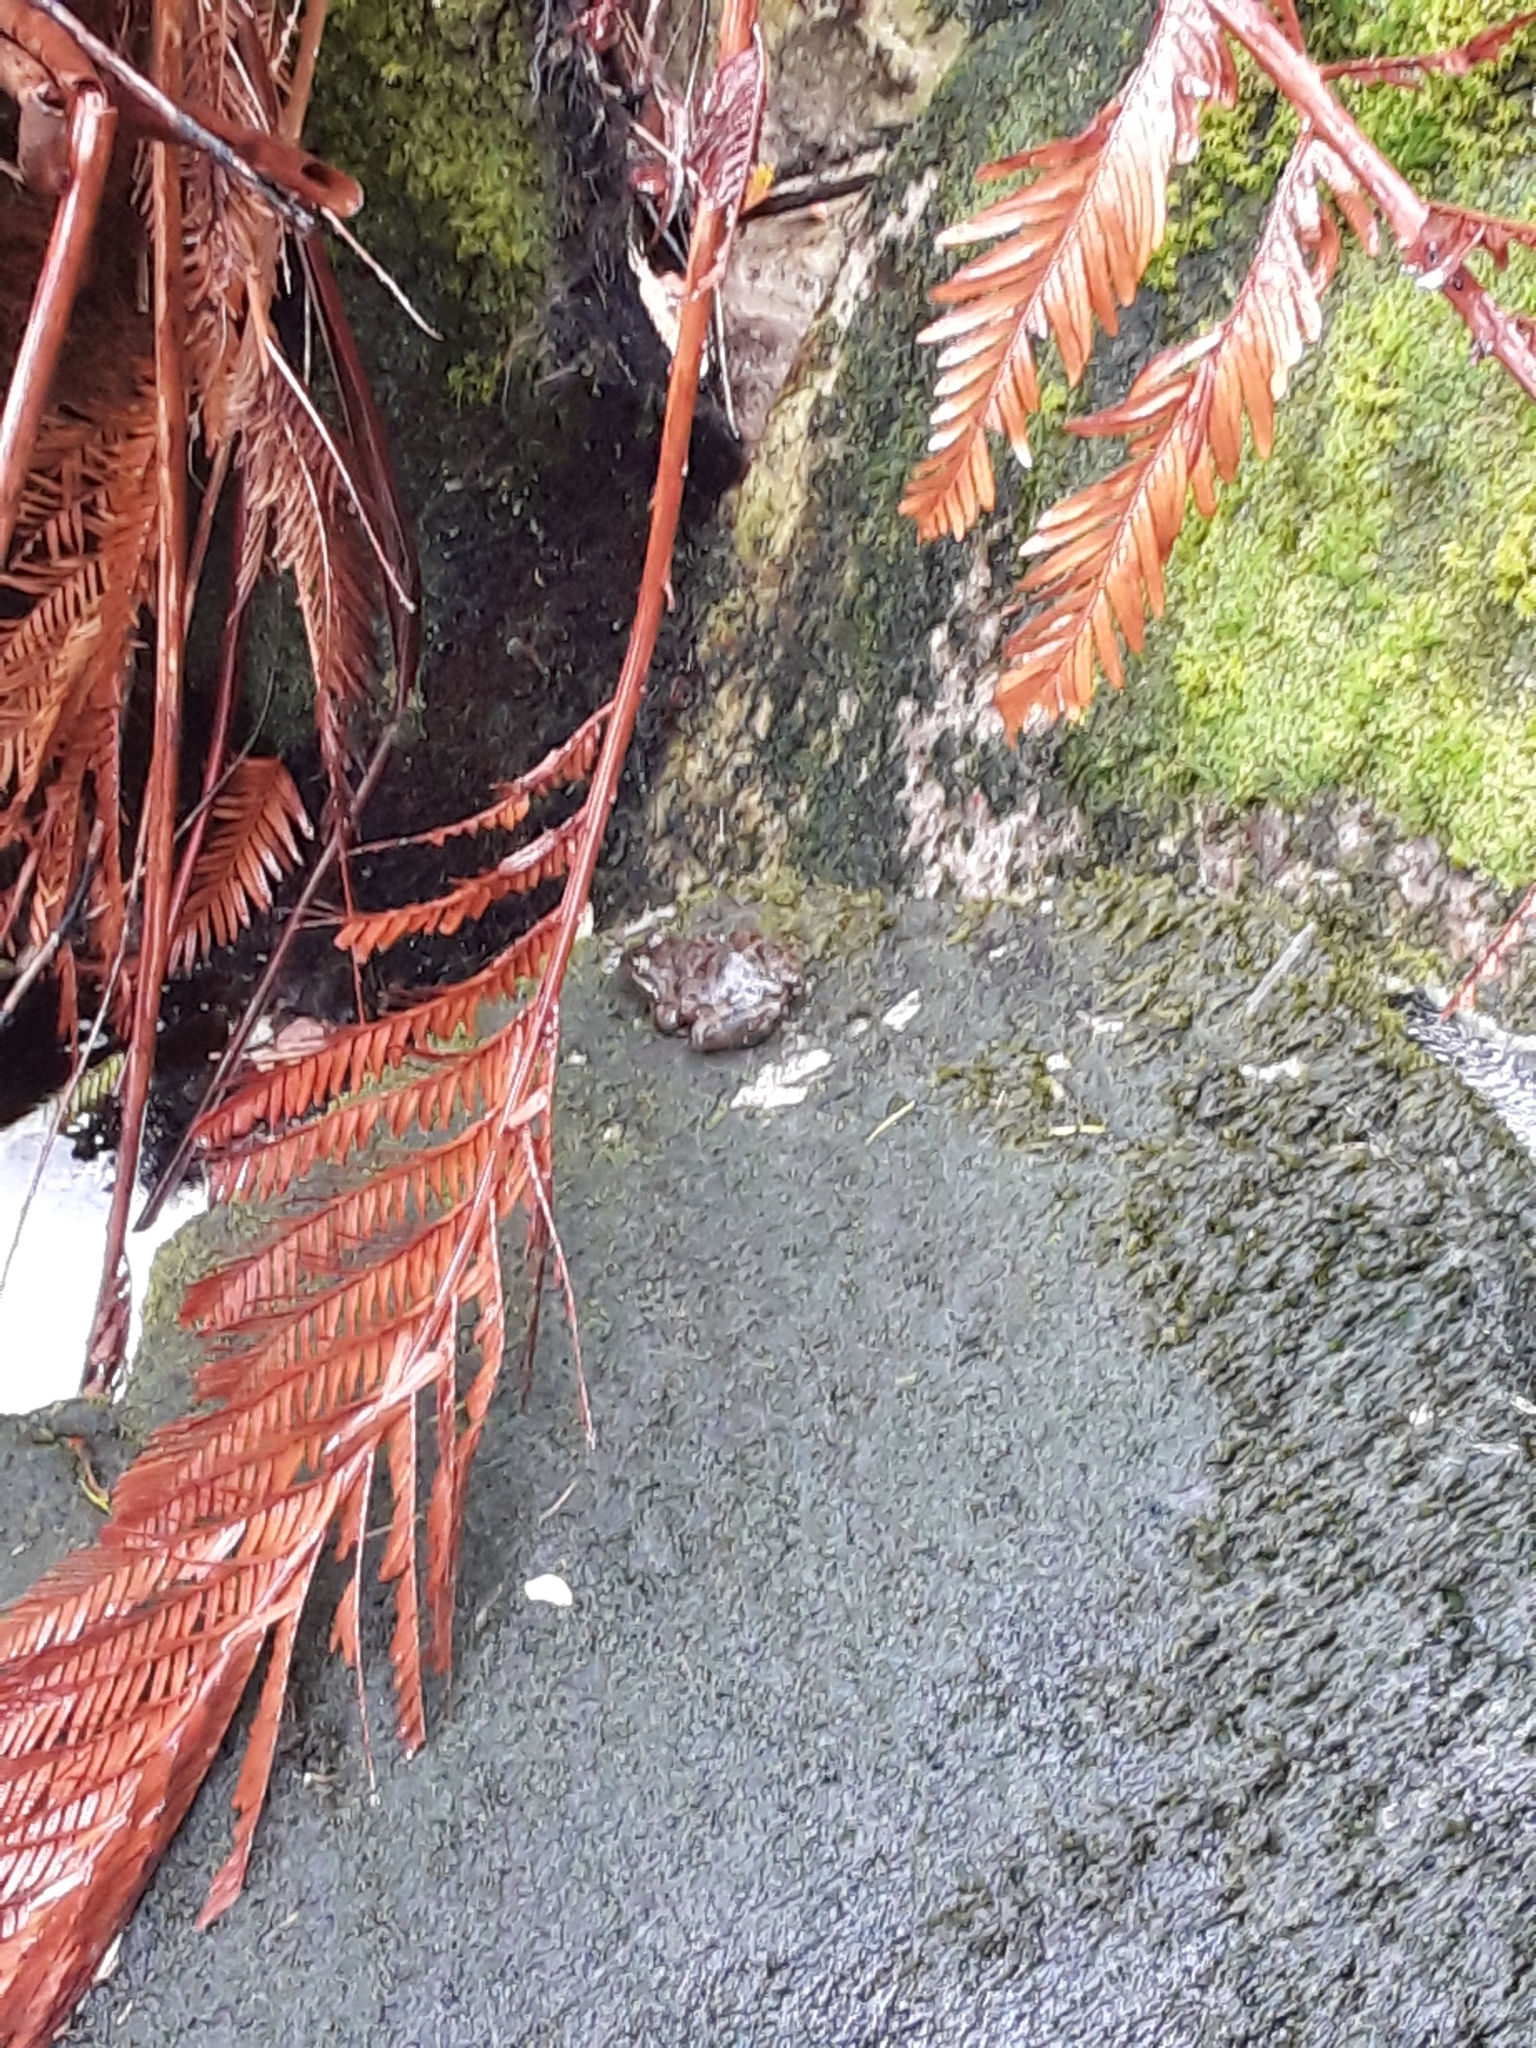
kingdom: Animalia
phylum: Chordata
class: Amphibia
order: Anura
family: Pyxicephalidae
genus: Amietia
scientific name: Amietia fuscigula
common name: Cape rana
